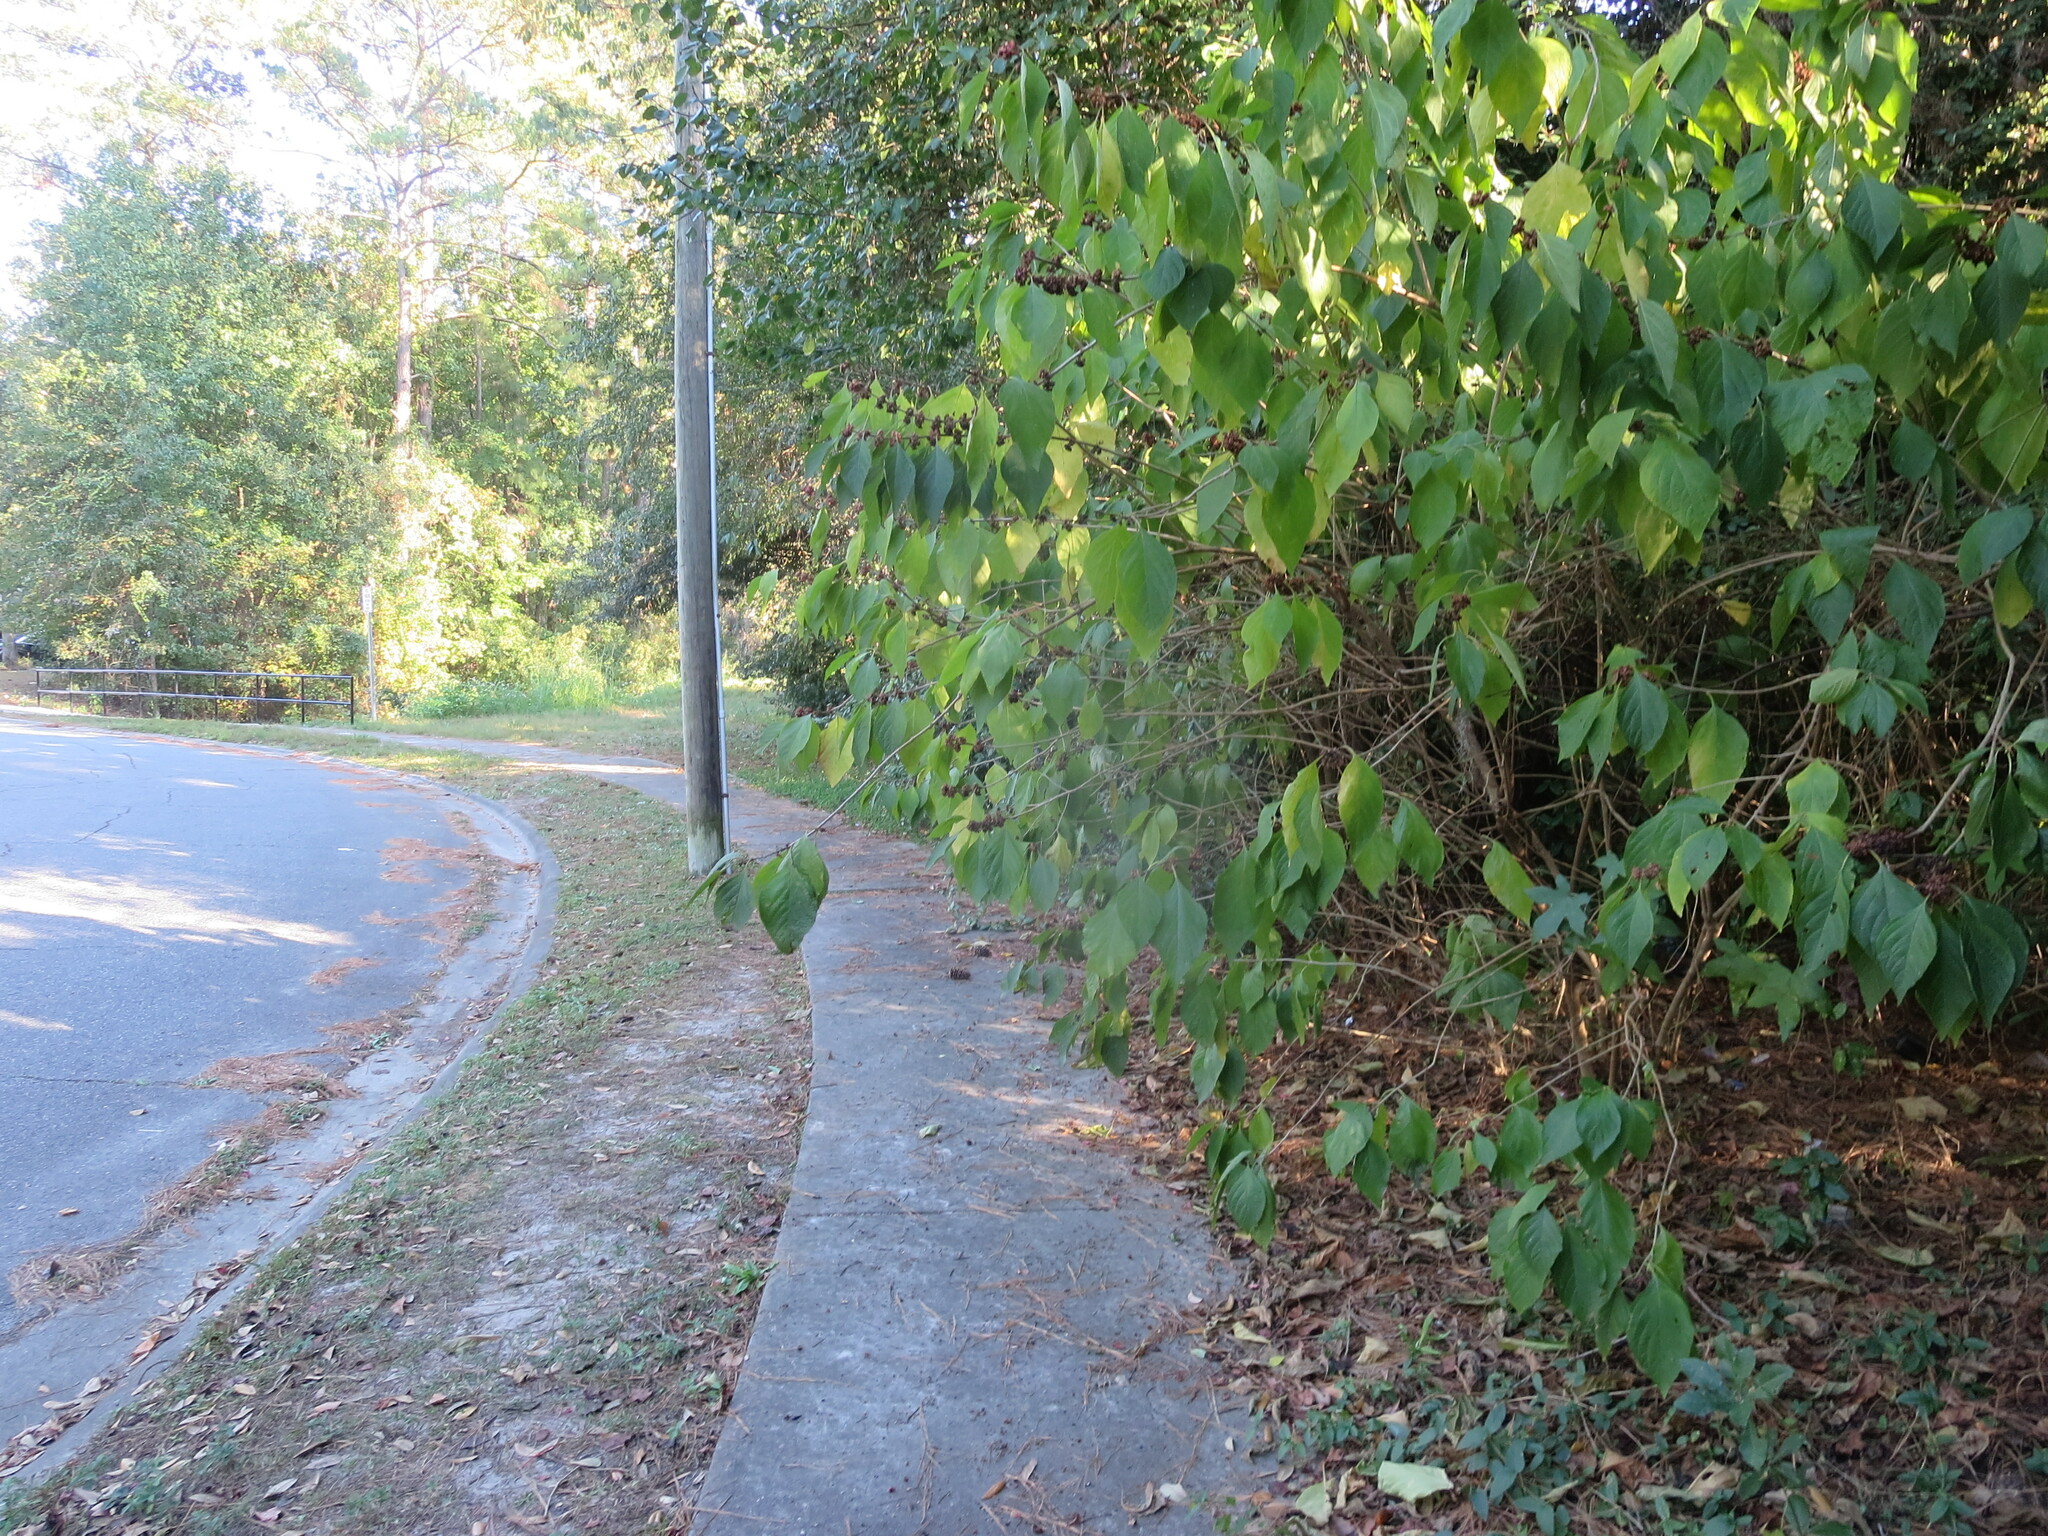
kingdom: Plantae
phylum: Tracheophyta
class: Magnoliopsida
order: Lamiales
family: Lamiaceae
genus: Callicarpa
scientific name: Callicarpa americana
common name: American beautyberry
